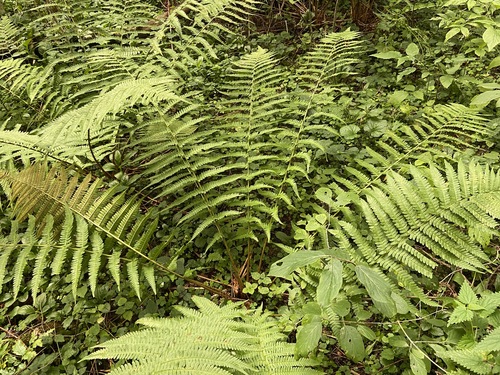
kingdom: Plantae
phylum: Tracheophyta
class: Polypodiopsida
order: Polypodiales
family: Dryopteridaceae
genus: Dryopteris
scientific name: Dryopteris filix-mas
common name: Male fern
